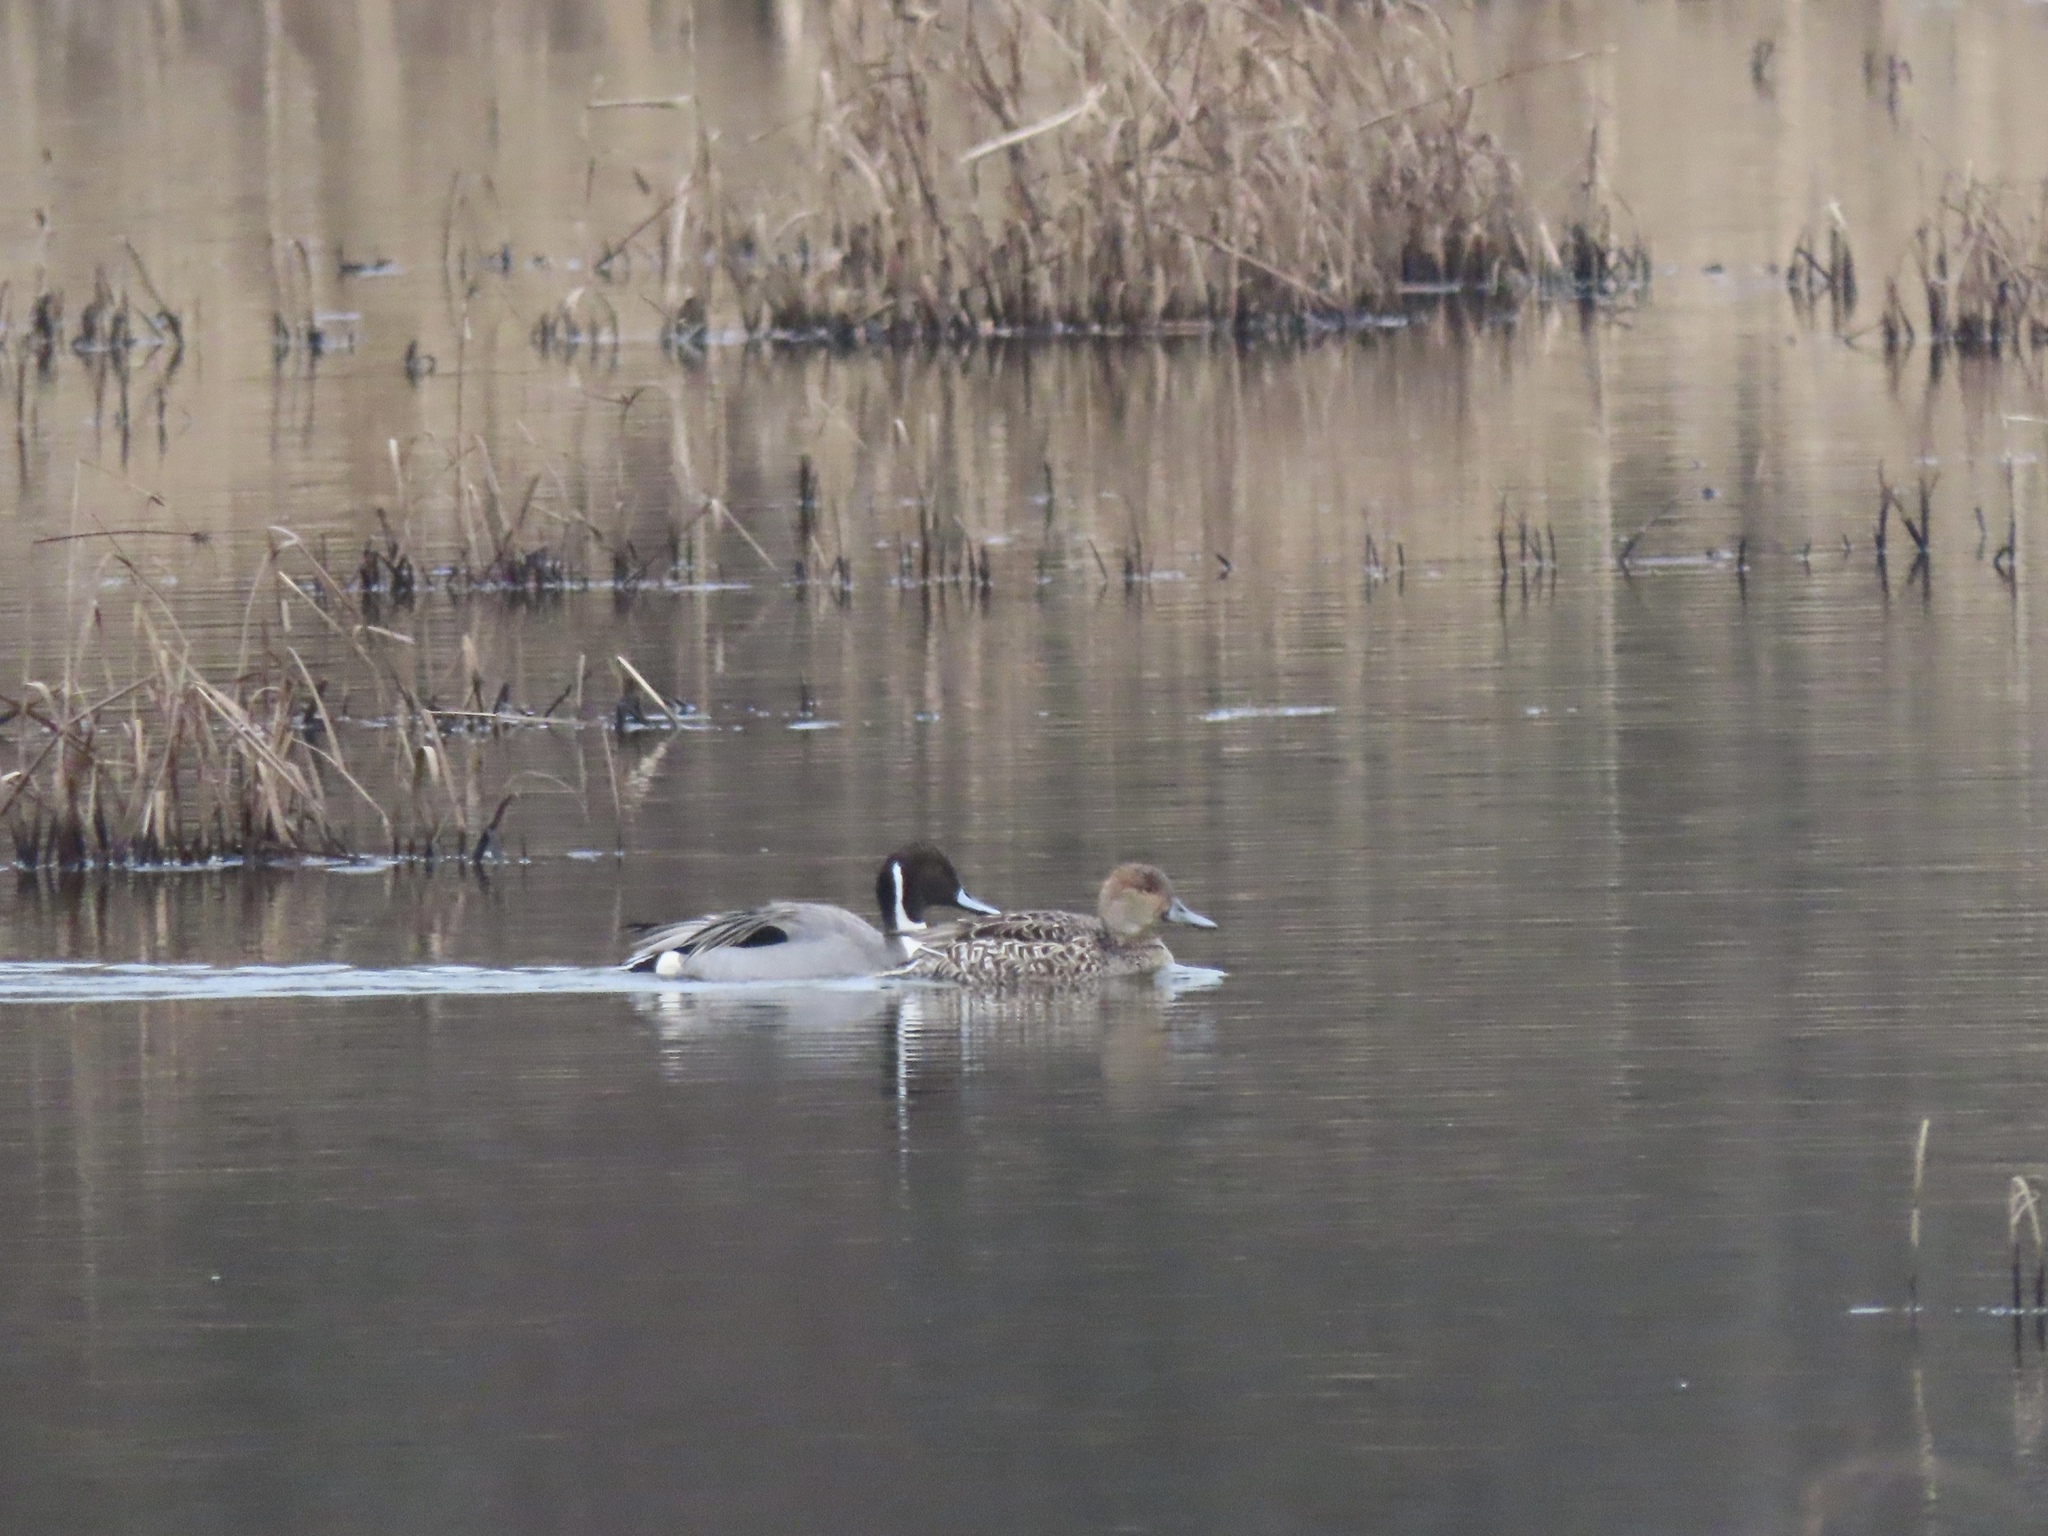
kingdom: Animalia
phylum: Chordata
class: Aves
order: Anseriformes
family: Anatidae
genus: Anas
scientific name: Anas acuta
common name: Northern pintail
